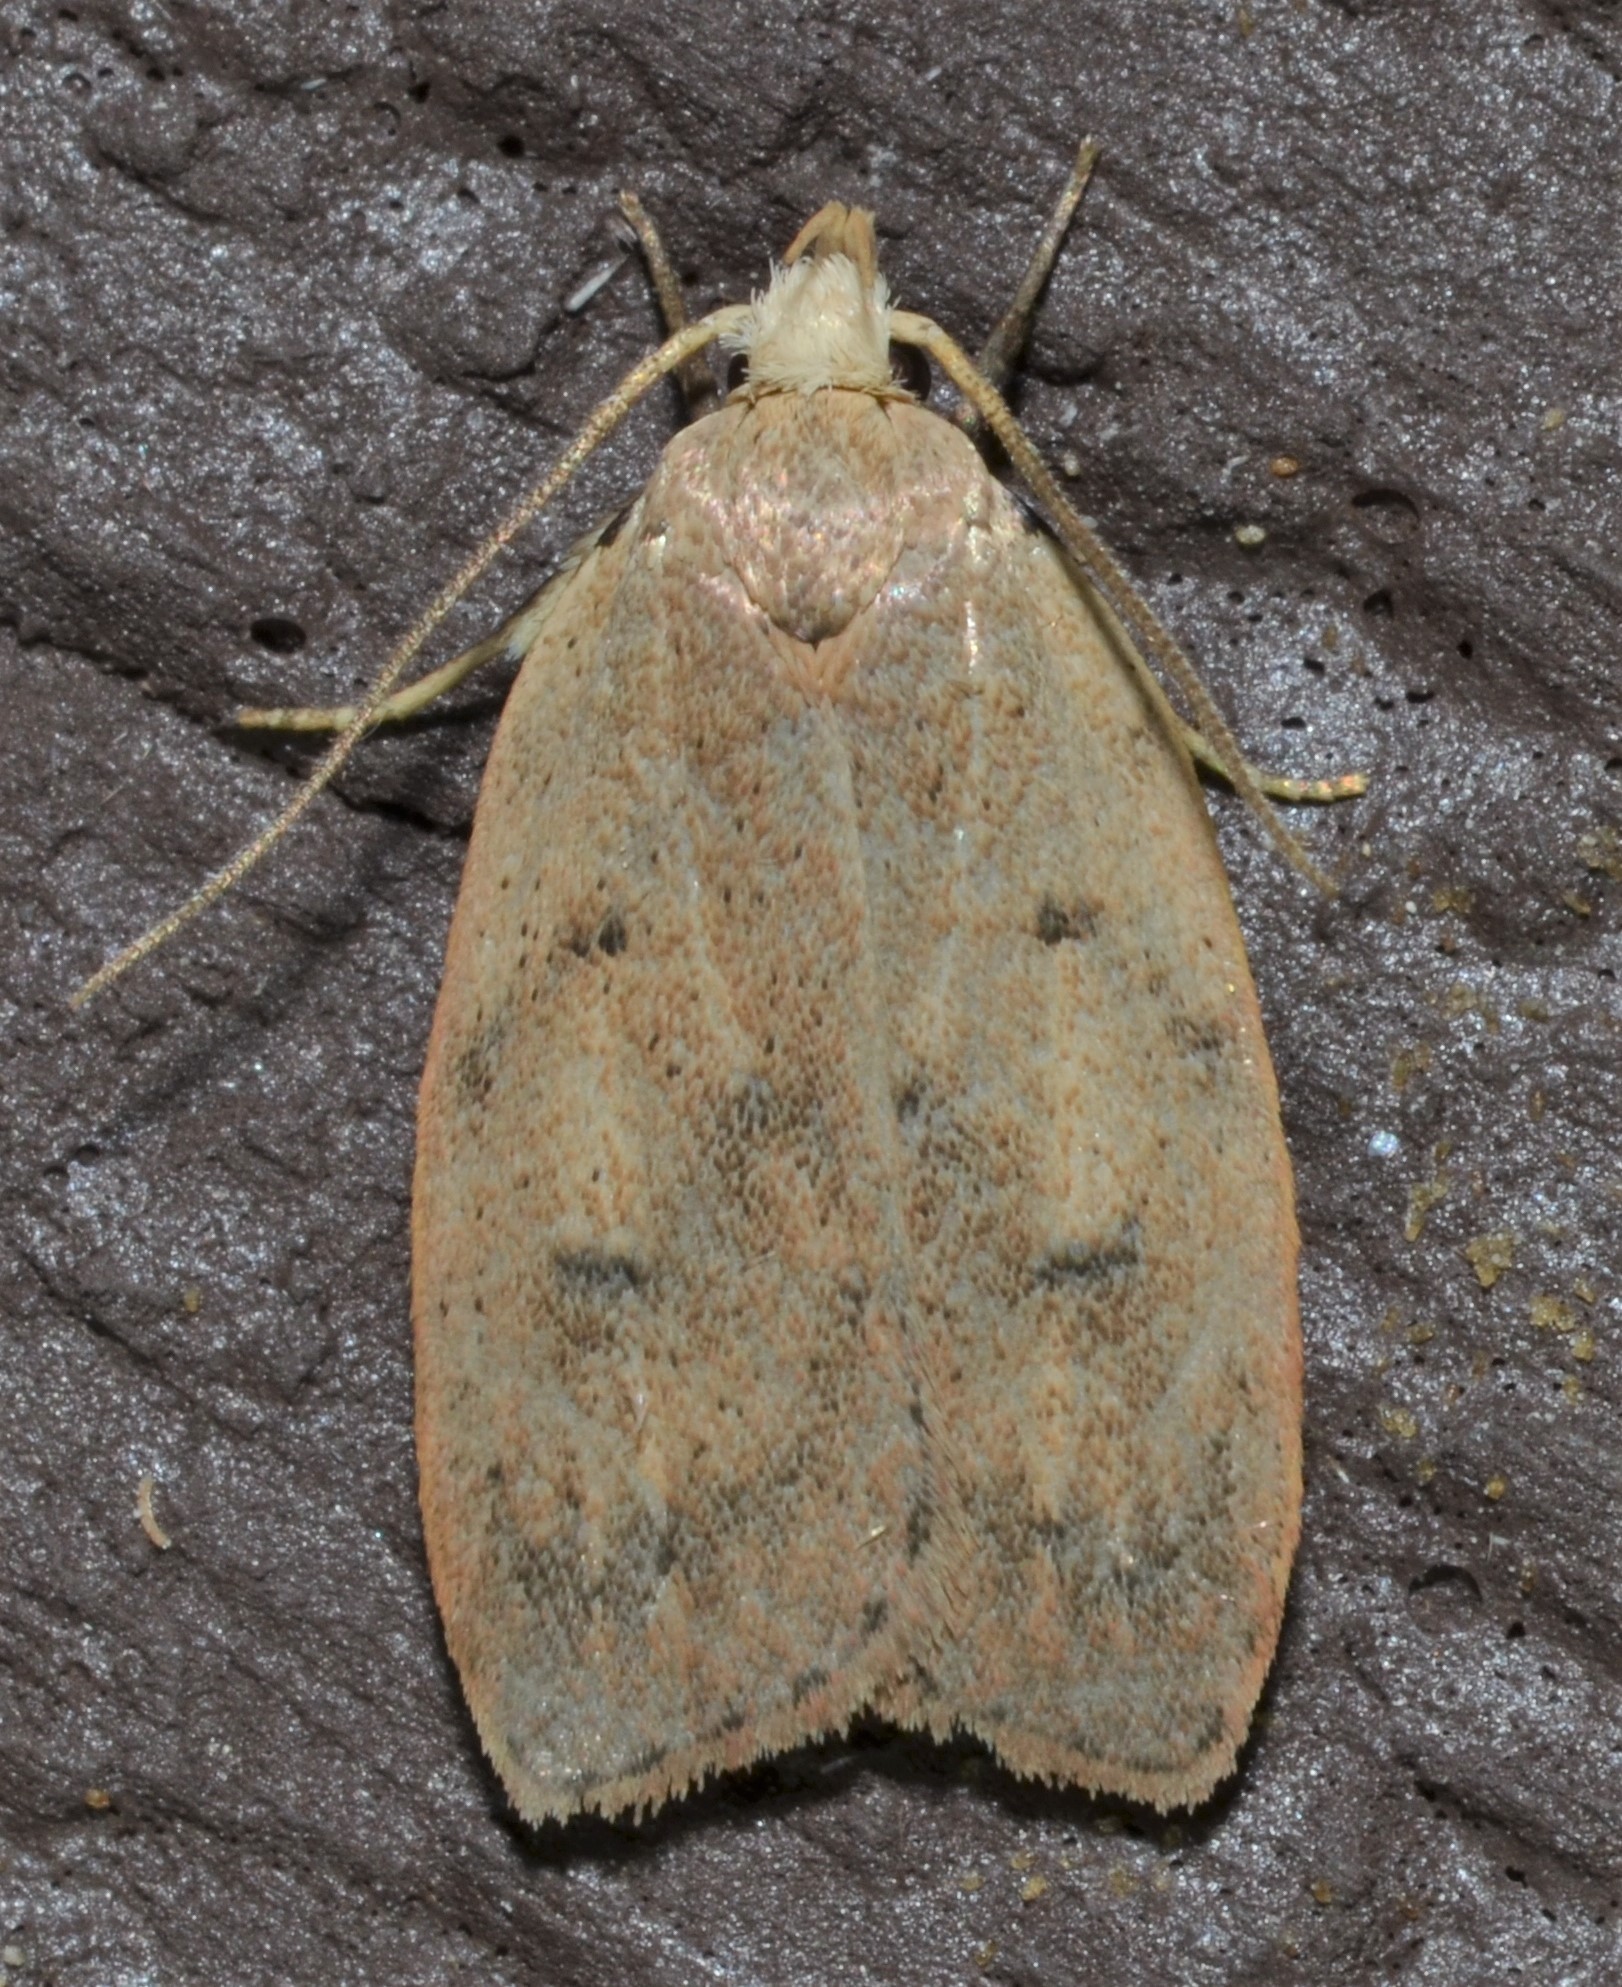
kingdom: Animalia
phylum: Arthropoda
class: Insecta
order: Lepidoptera
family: Peleopodidae
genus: Machimia
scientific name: Machimia tentoriferella
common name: Gold-striped leaftier moth
